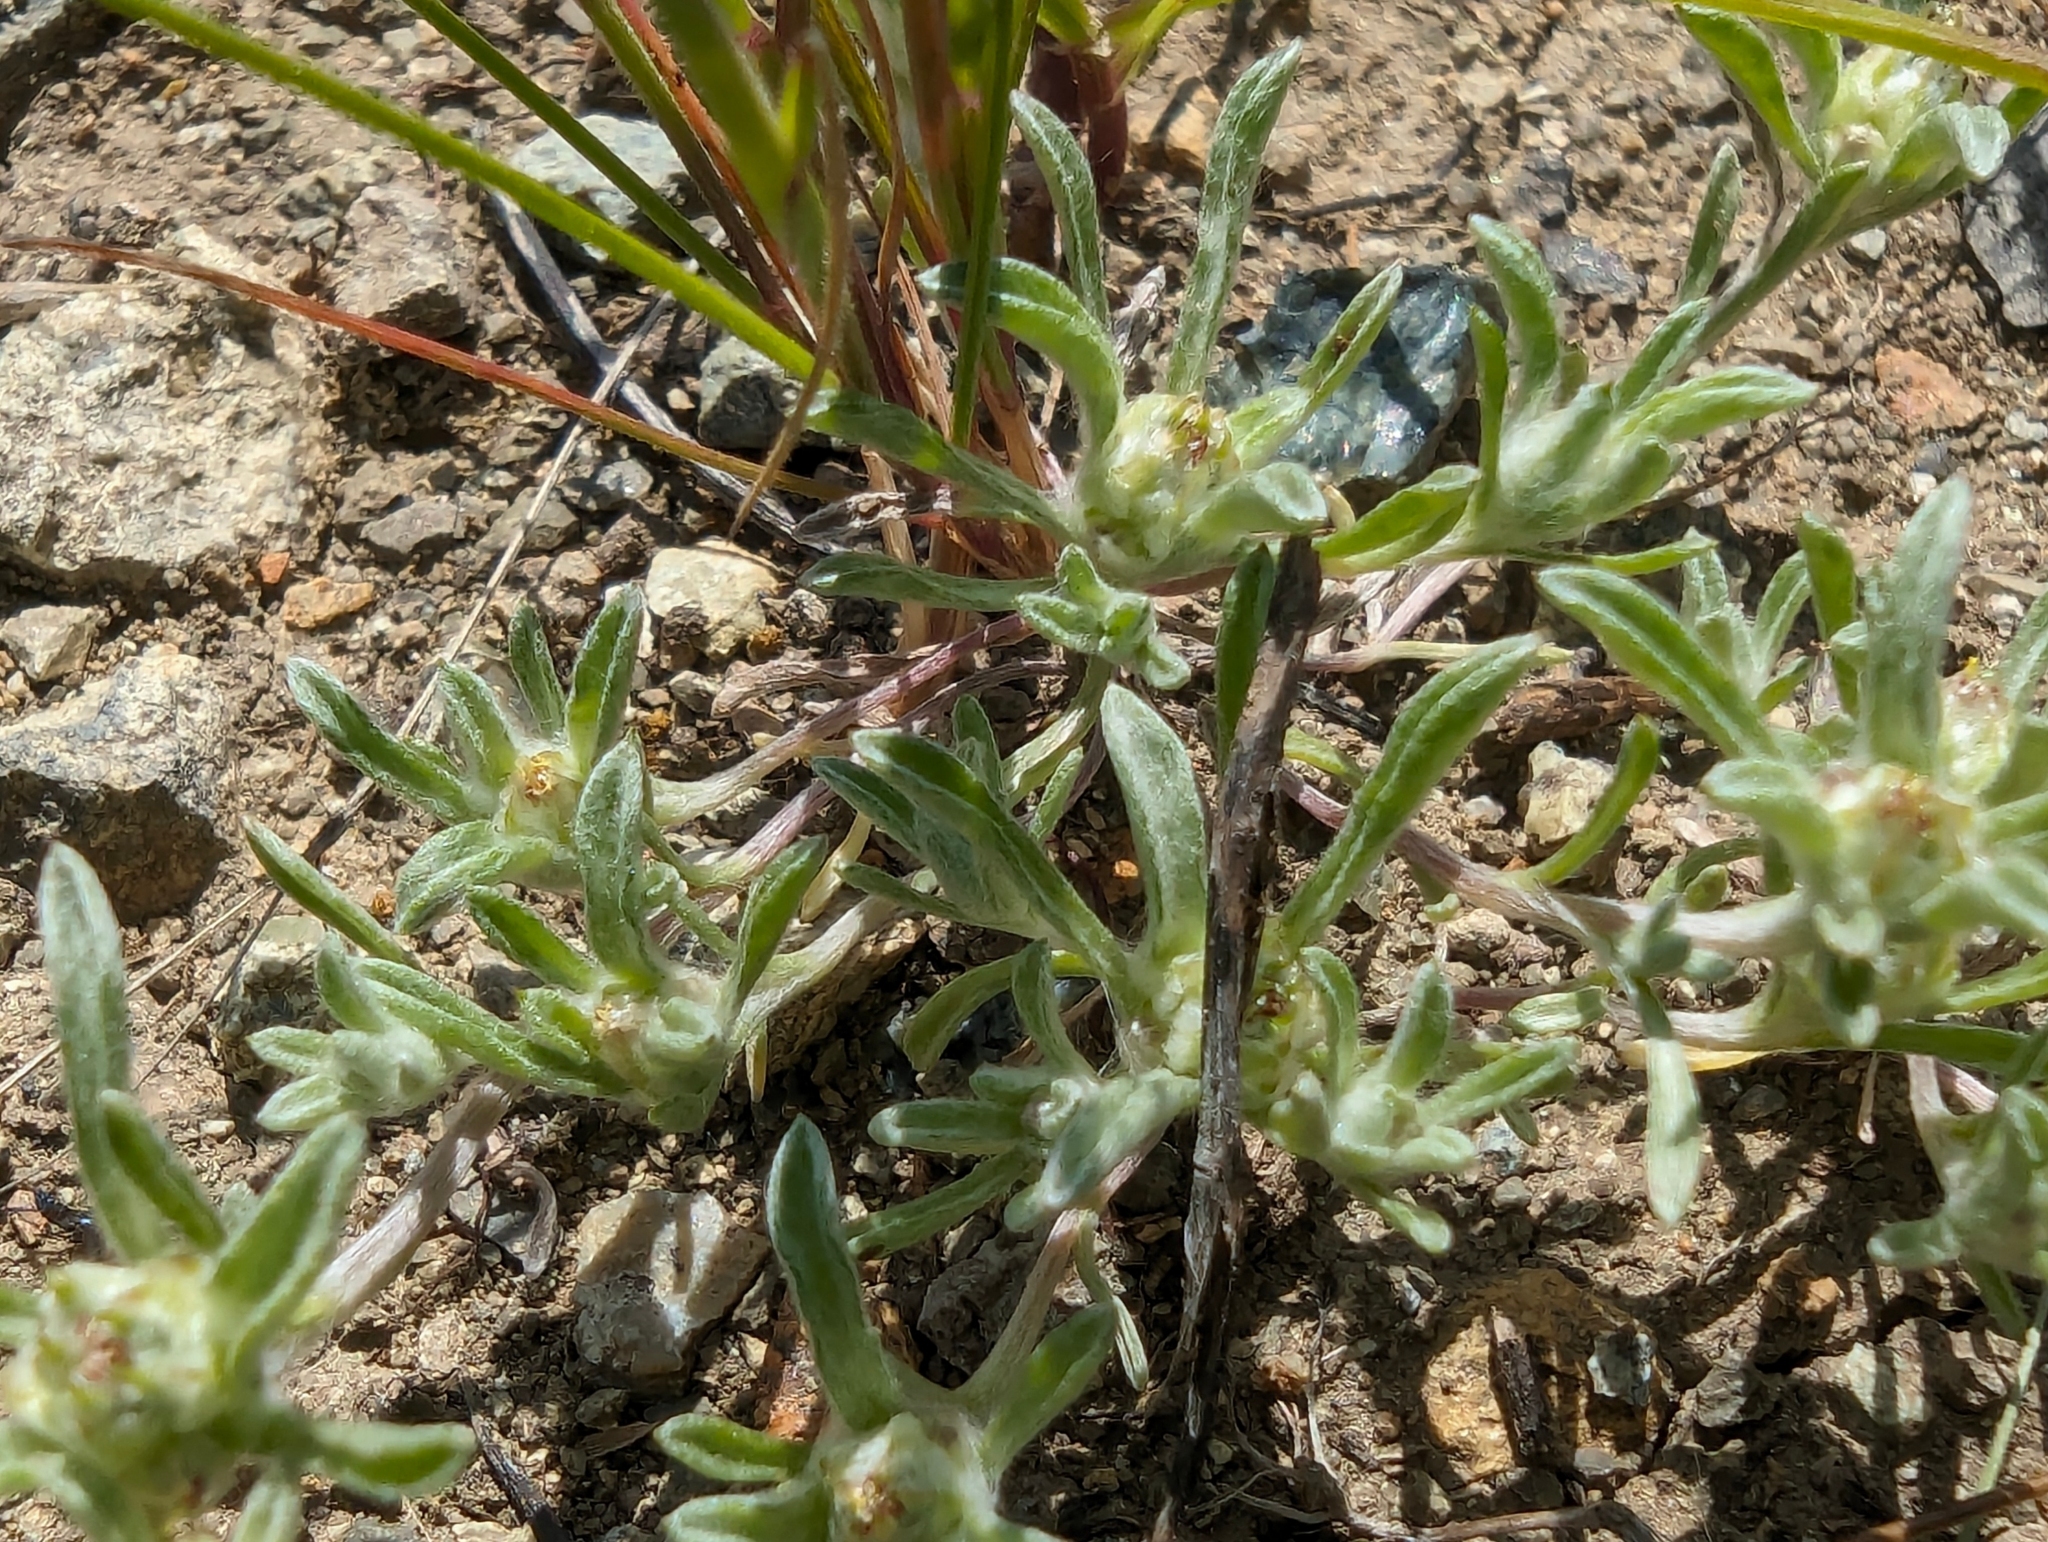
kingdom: Plantae
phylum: Tracheophyta
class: Magnoliopsida
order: Asterales
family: Asteraceae
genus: Ancistrocarphus
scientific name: Ancistrocarphus filagineus
